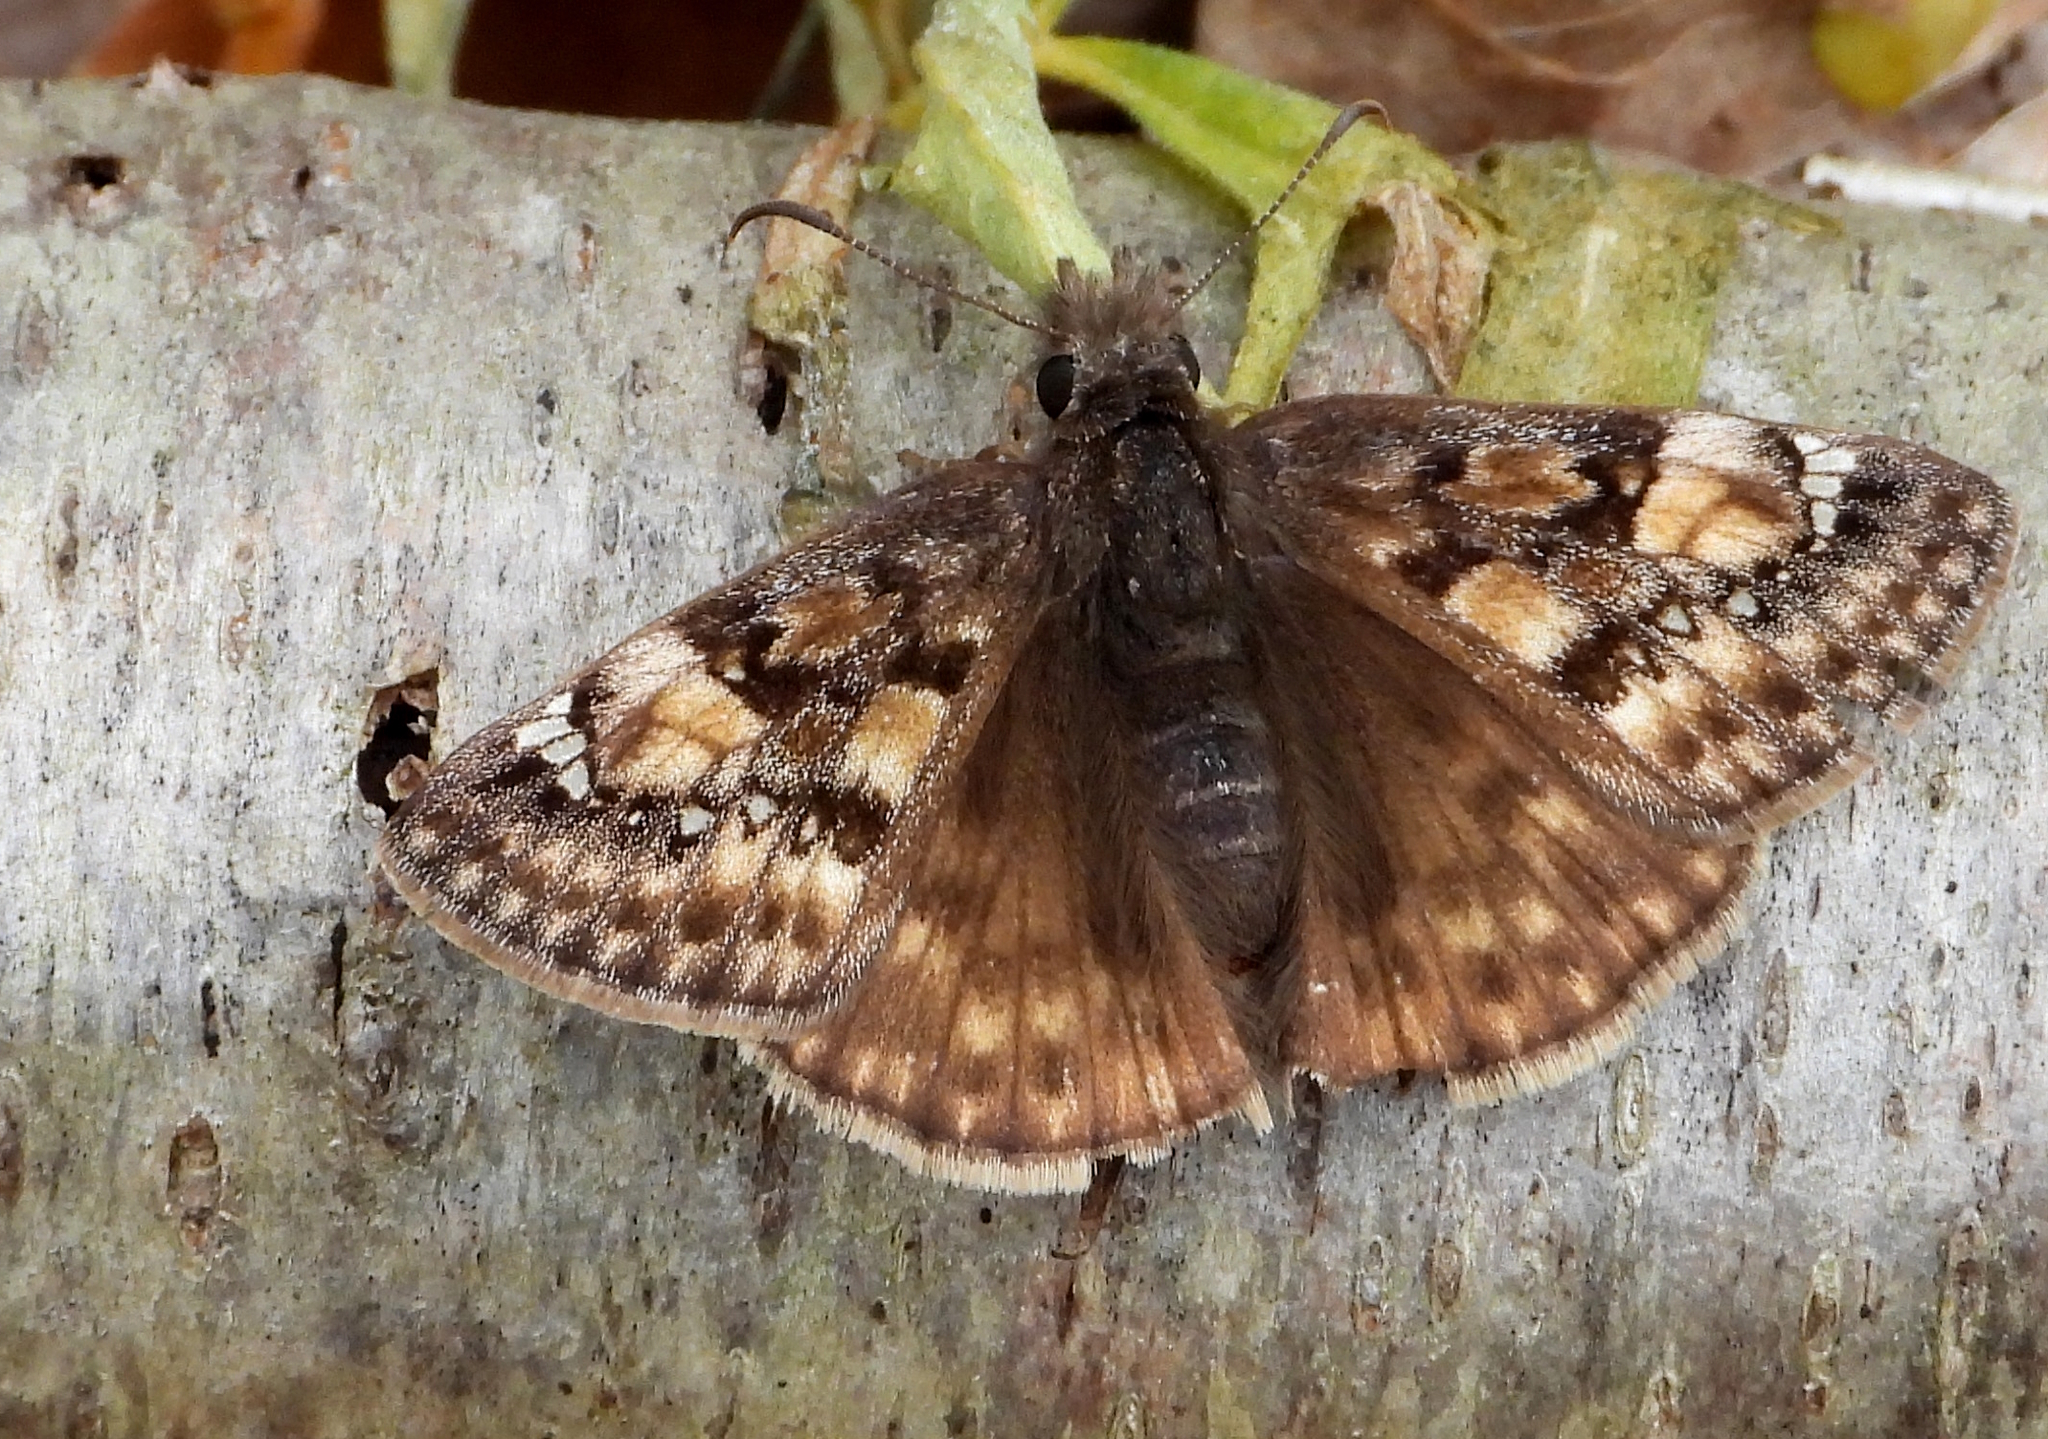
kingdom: Animalia
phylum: Arthropoda
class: Insecta
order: Lepidoptera
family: Hesperiidae
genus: Erynnis
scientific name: Erynnis juvenalis
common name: Juvenal's duskywing
